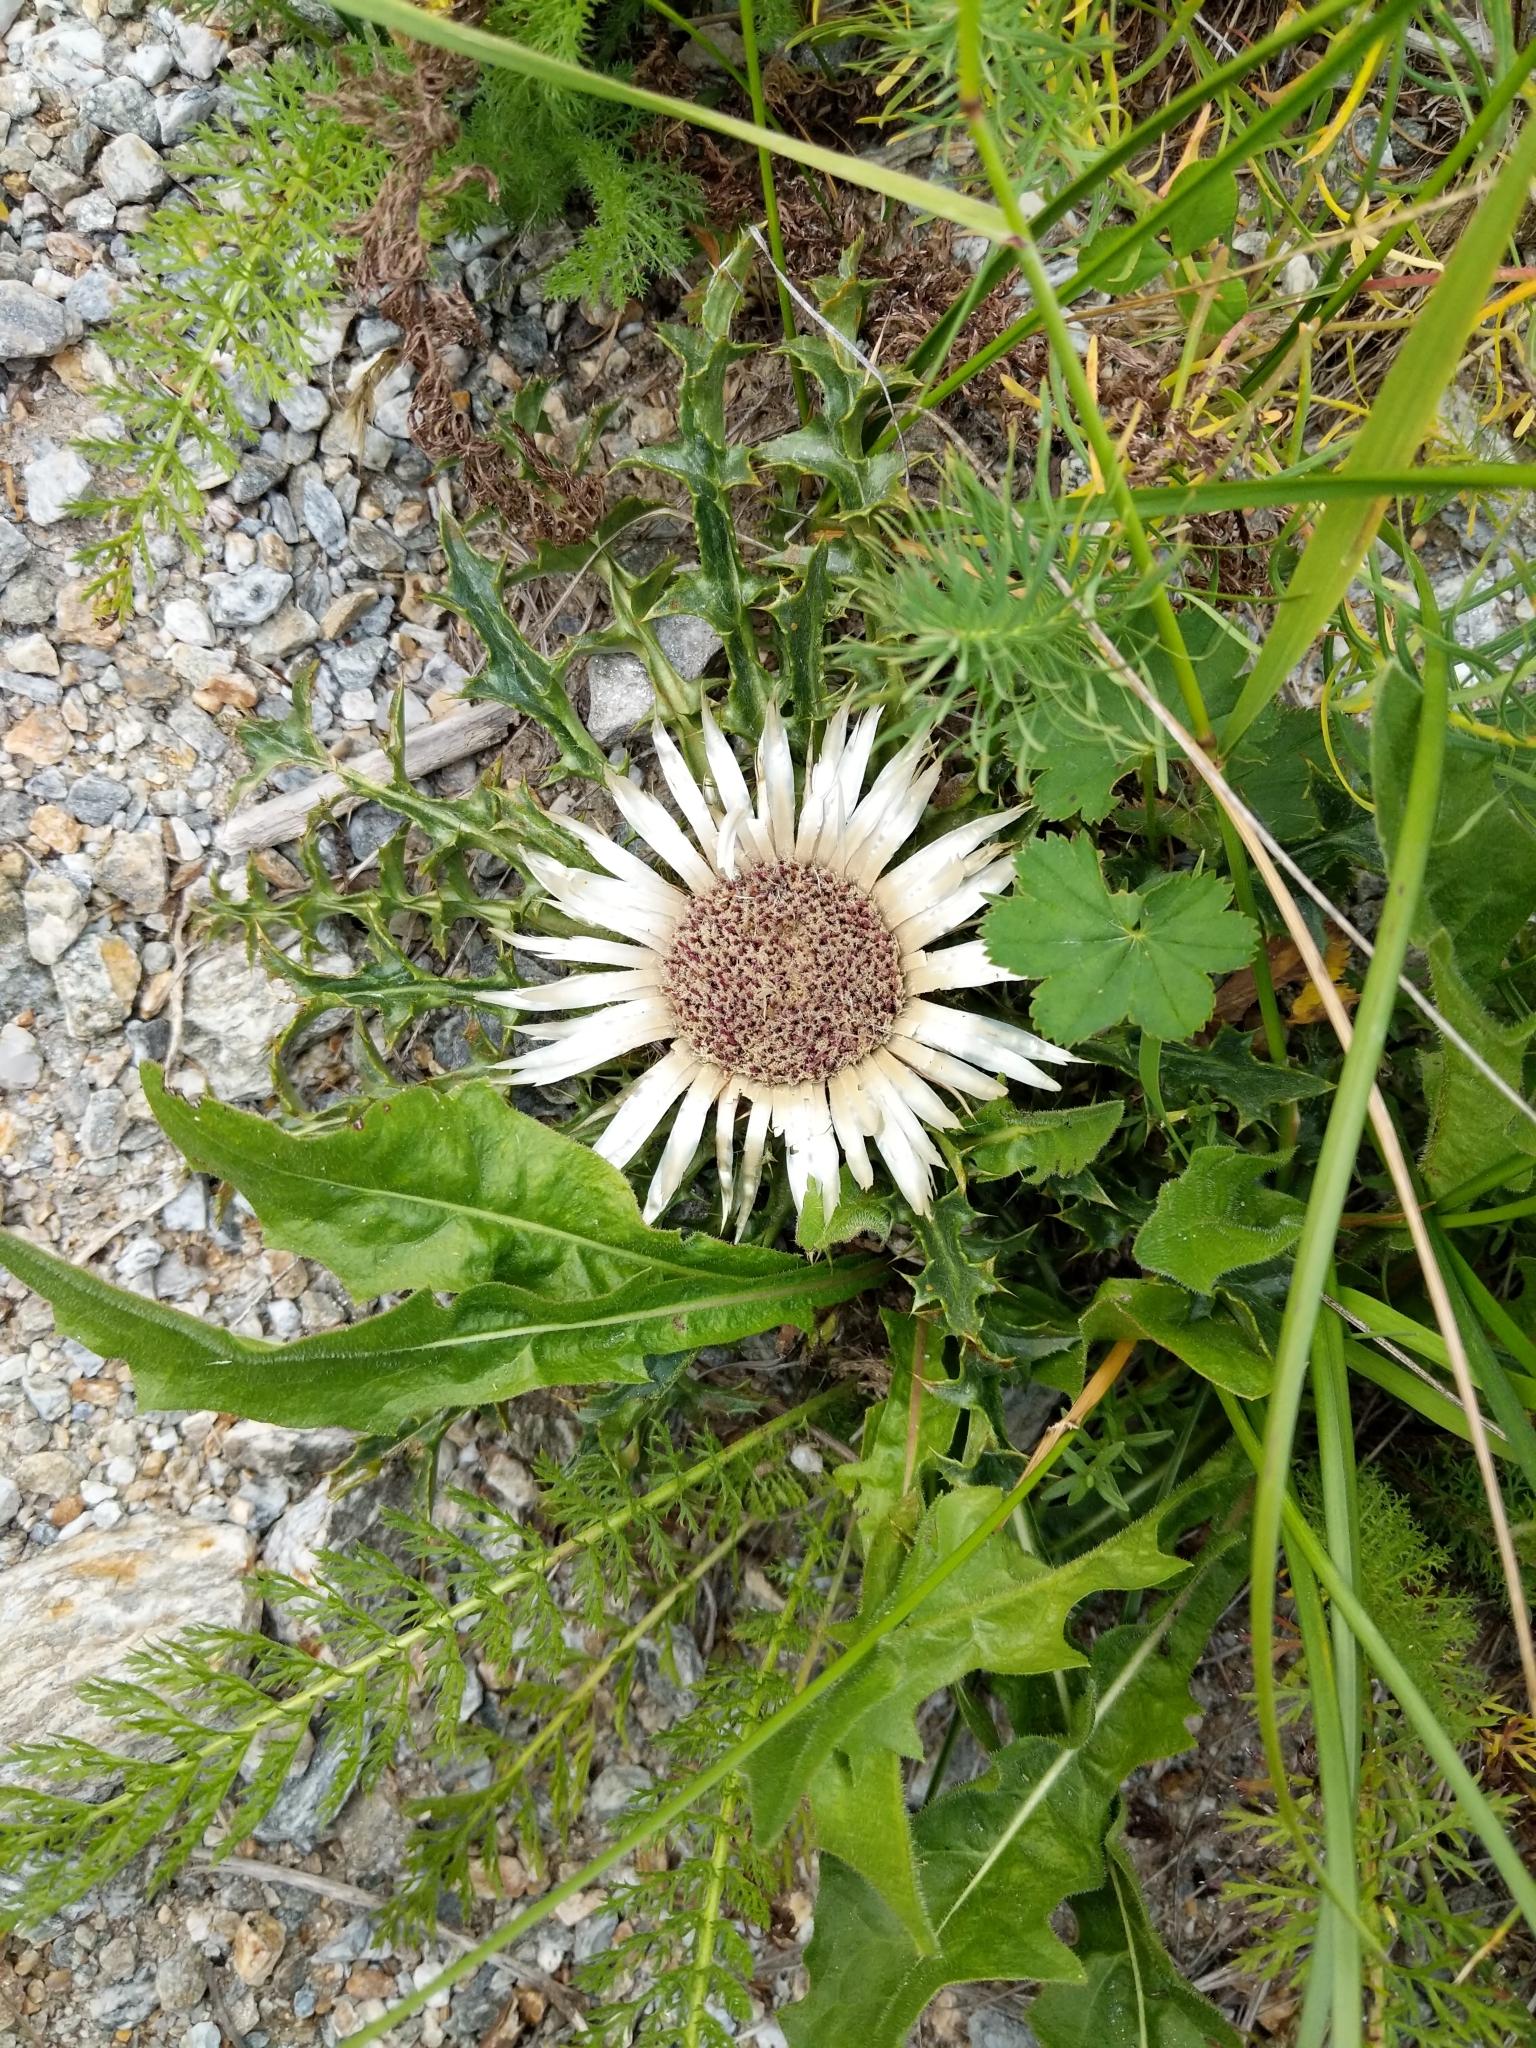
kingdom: Plantae
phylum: Tracheophyta
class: Magnoliopsida
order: Asterales
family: Asteraceae
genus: Carlina
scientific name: Carlina acaulis
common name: Stemless carline thistle
